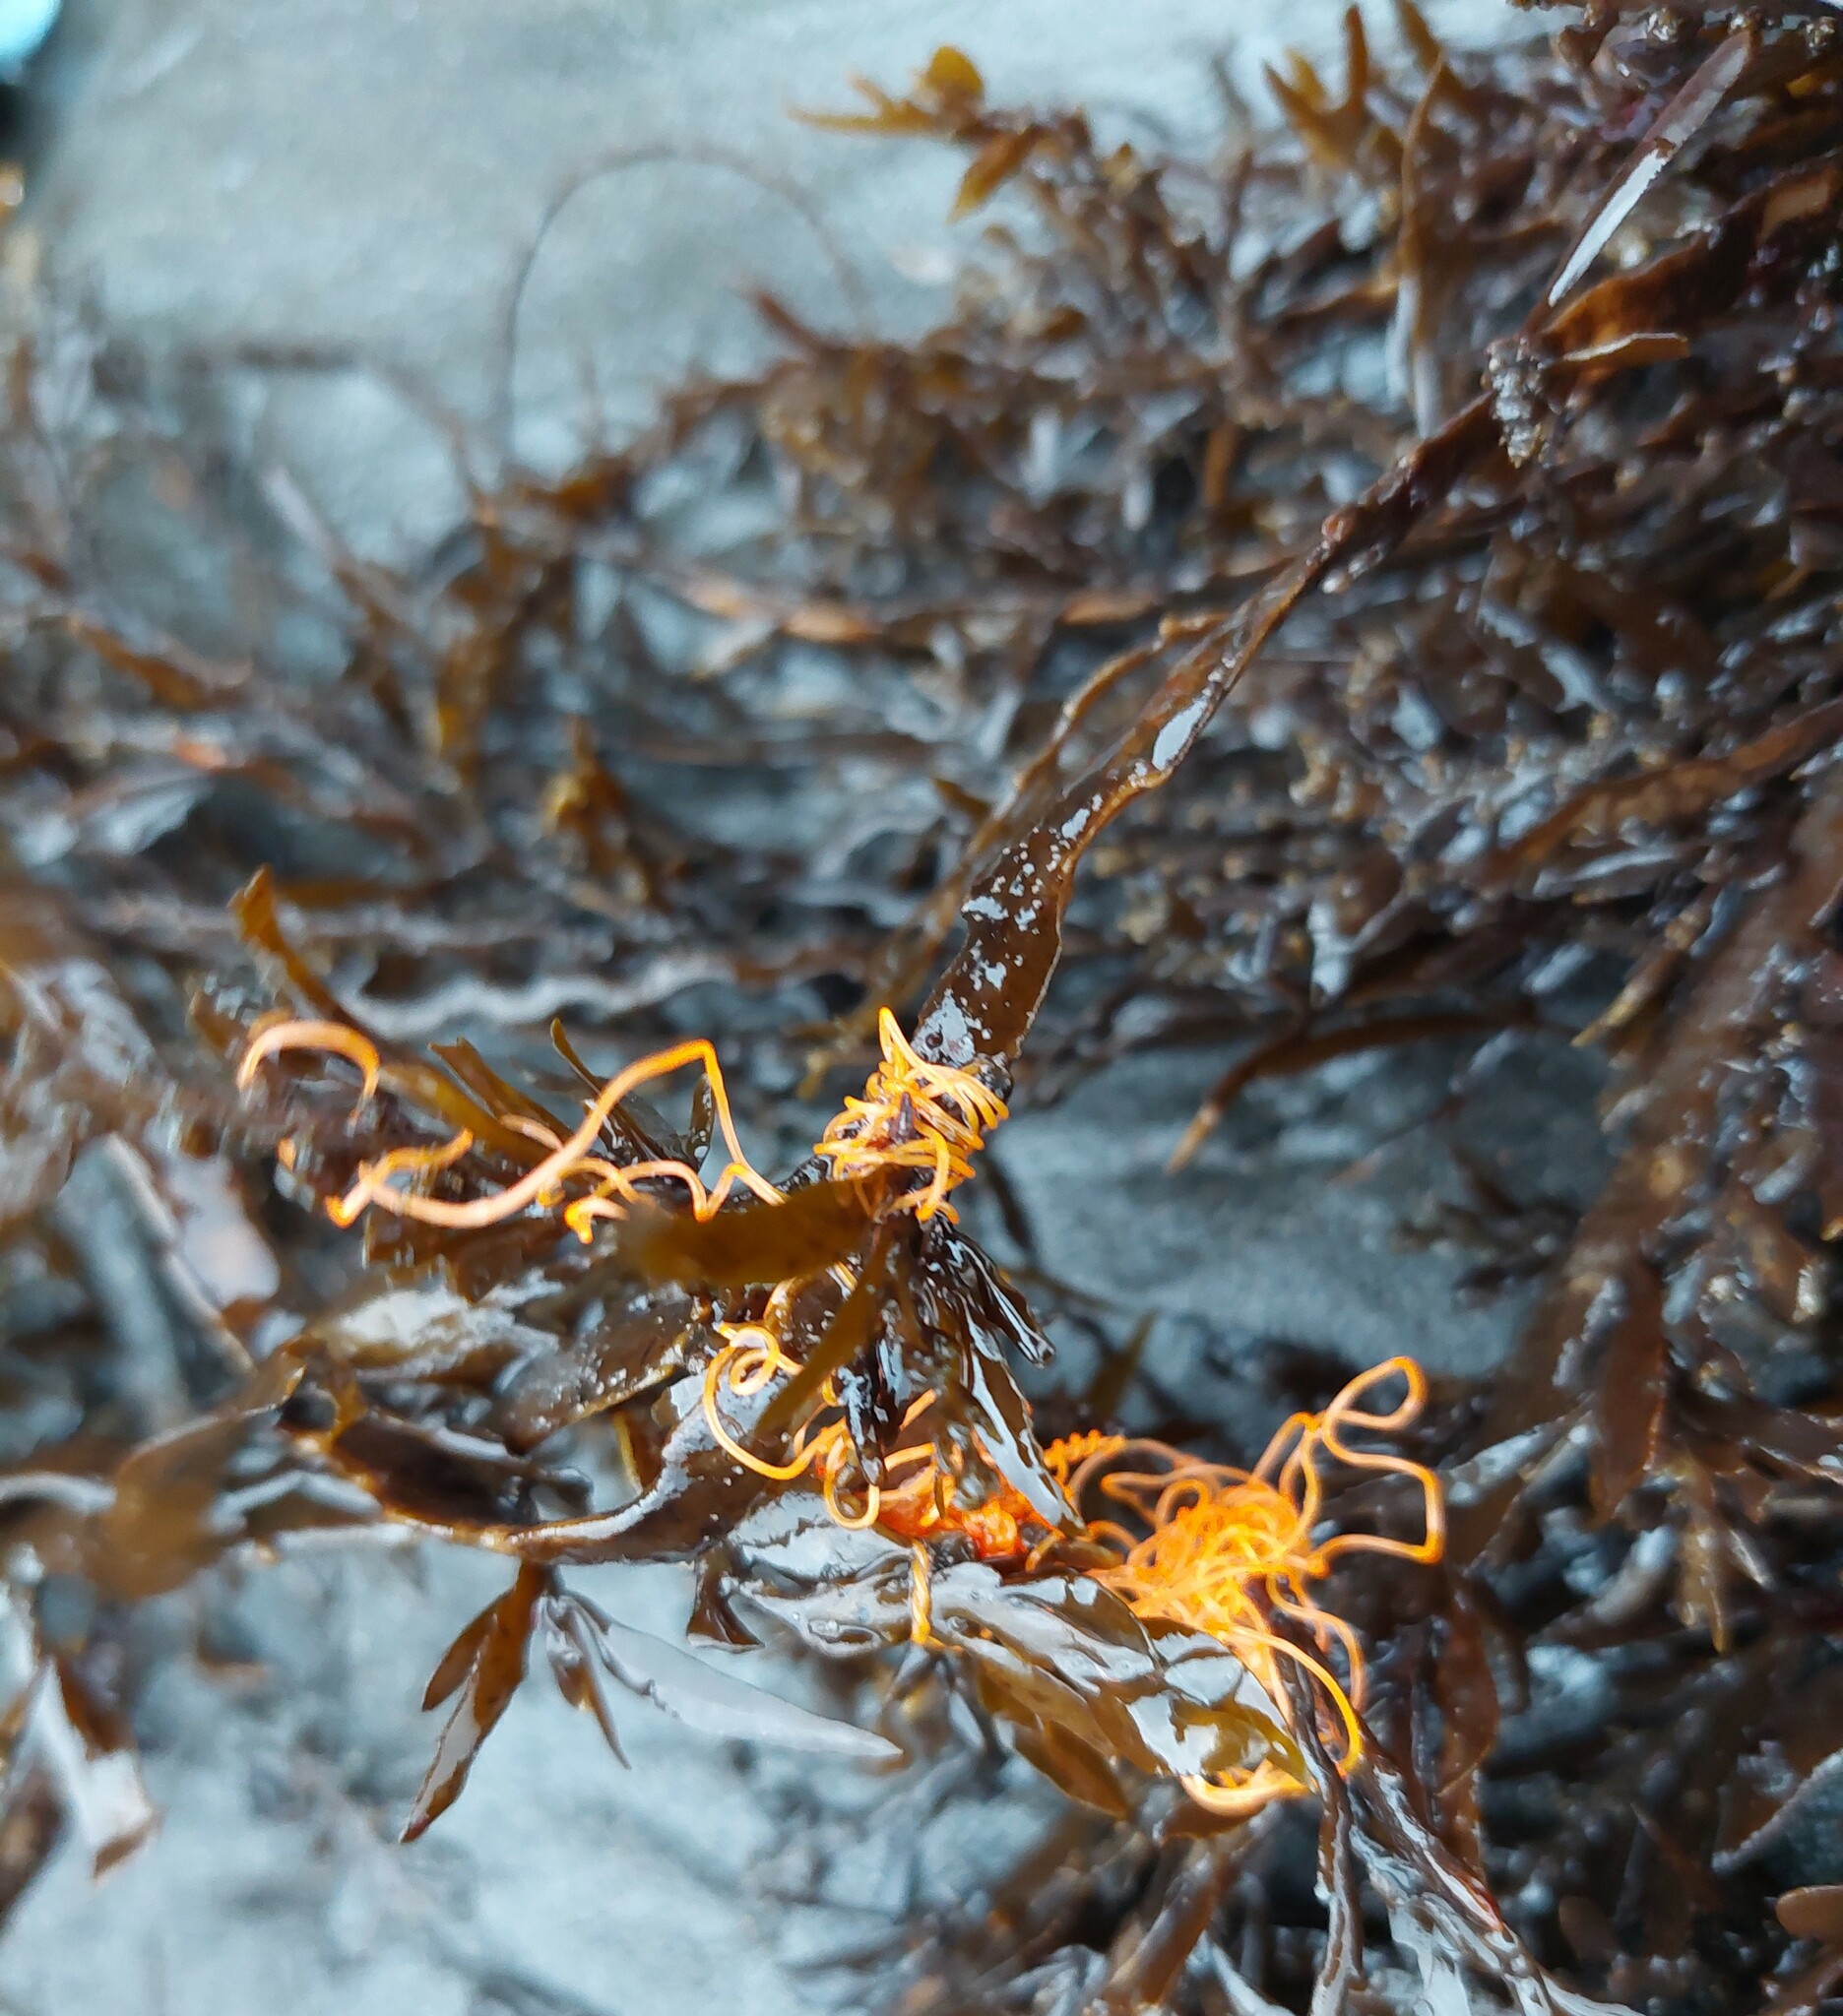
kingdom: Chromista
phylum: Ochrophyta
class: Phaeophyceae
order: Fucales
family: Sargassaceae
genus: Carpophyllum
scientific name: Carpophyllum maschalocarpum
